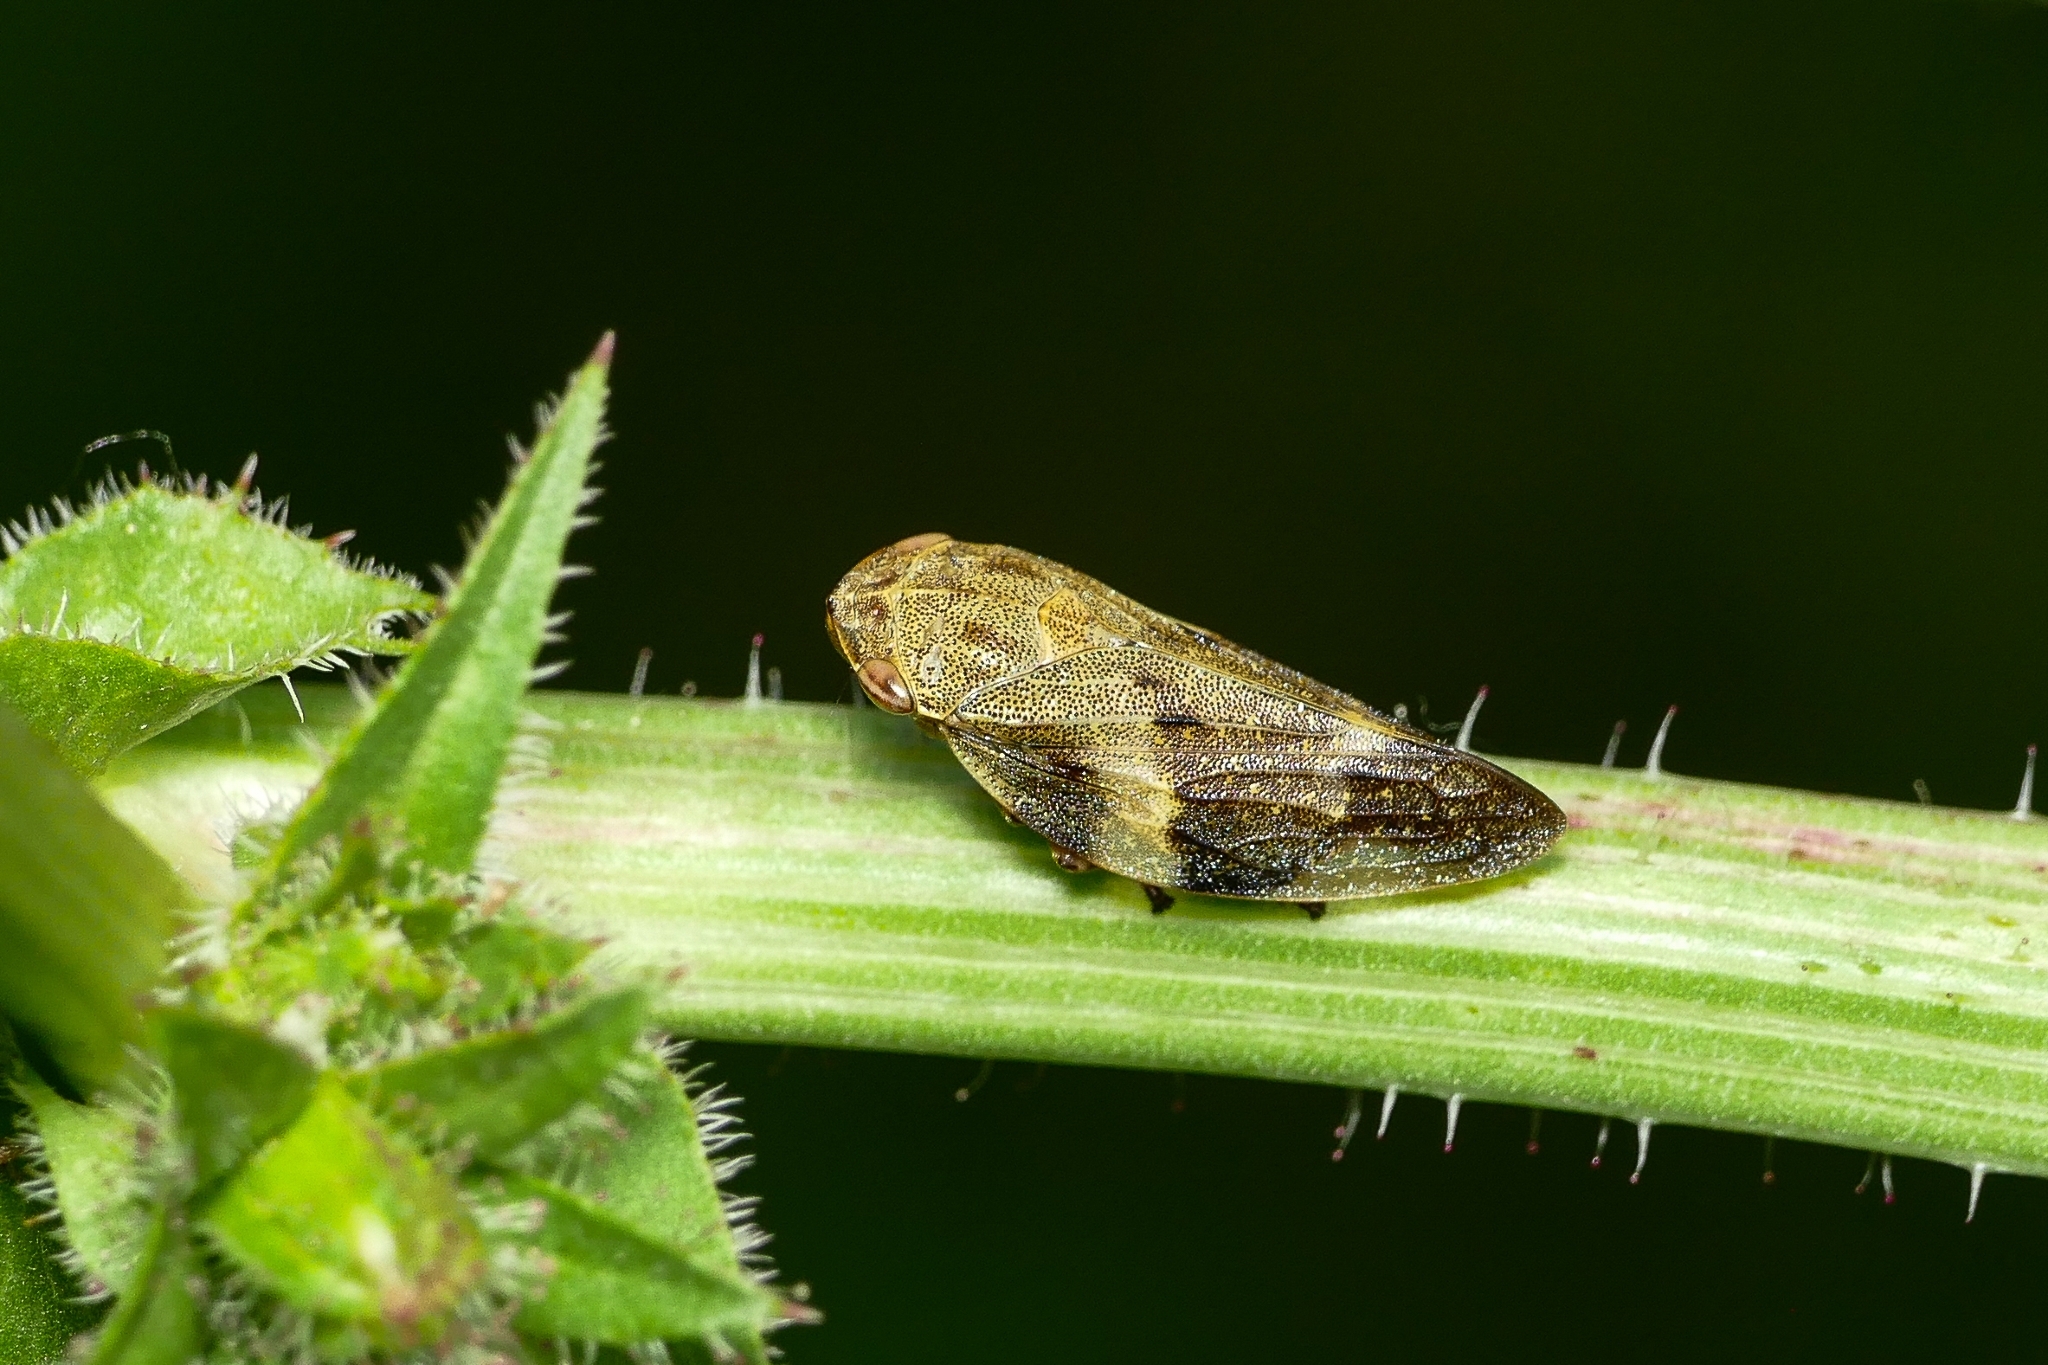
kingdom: Animalia
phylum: Arthropoda
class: Insecta
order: Hemiptera
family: Aphrophoridae
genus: Aphrophora
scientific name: Aphrophora alni
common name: European alder spittlebug
